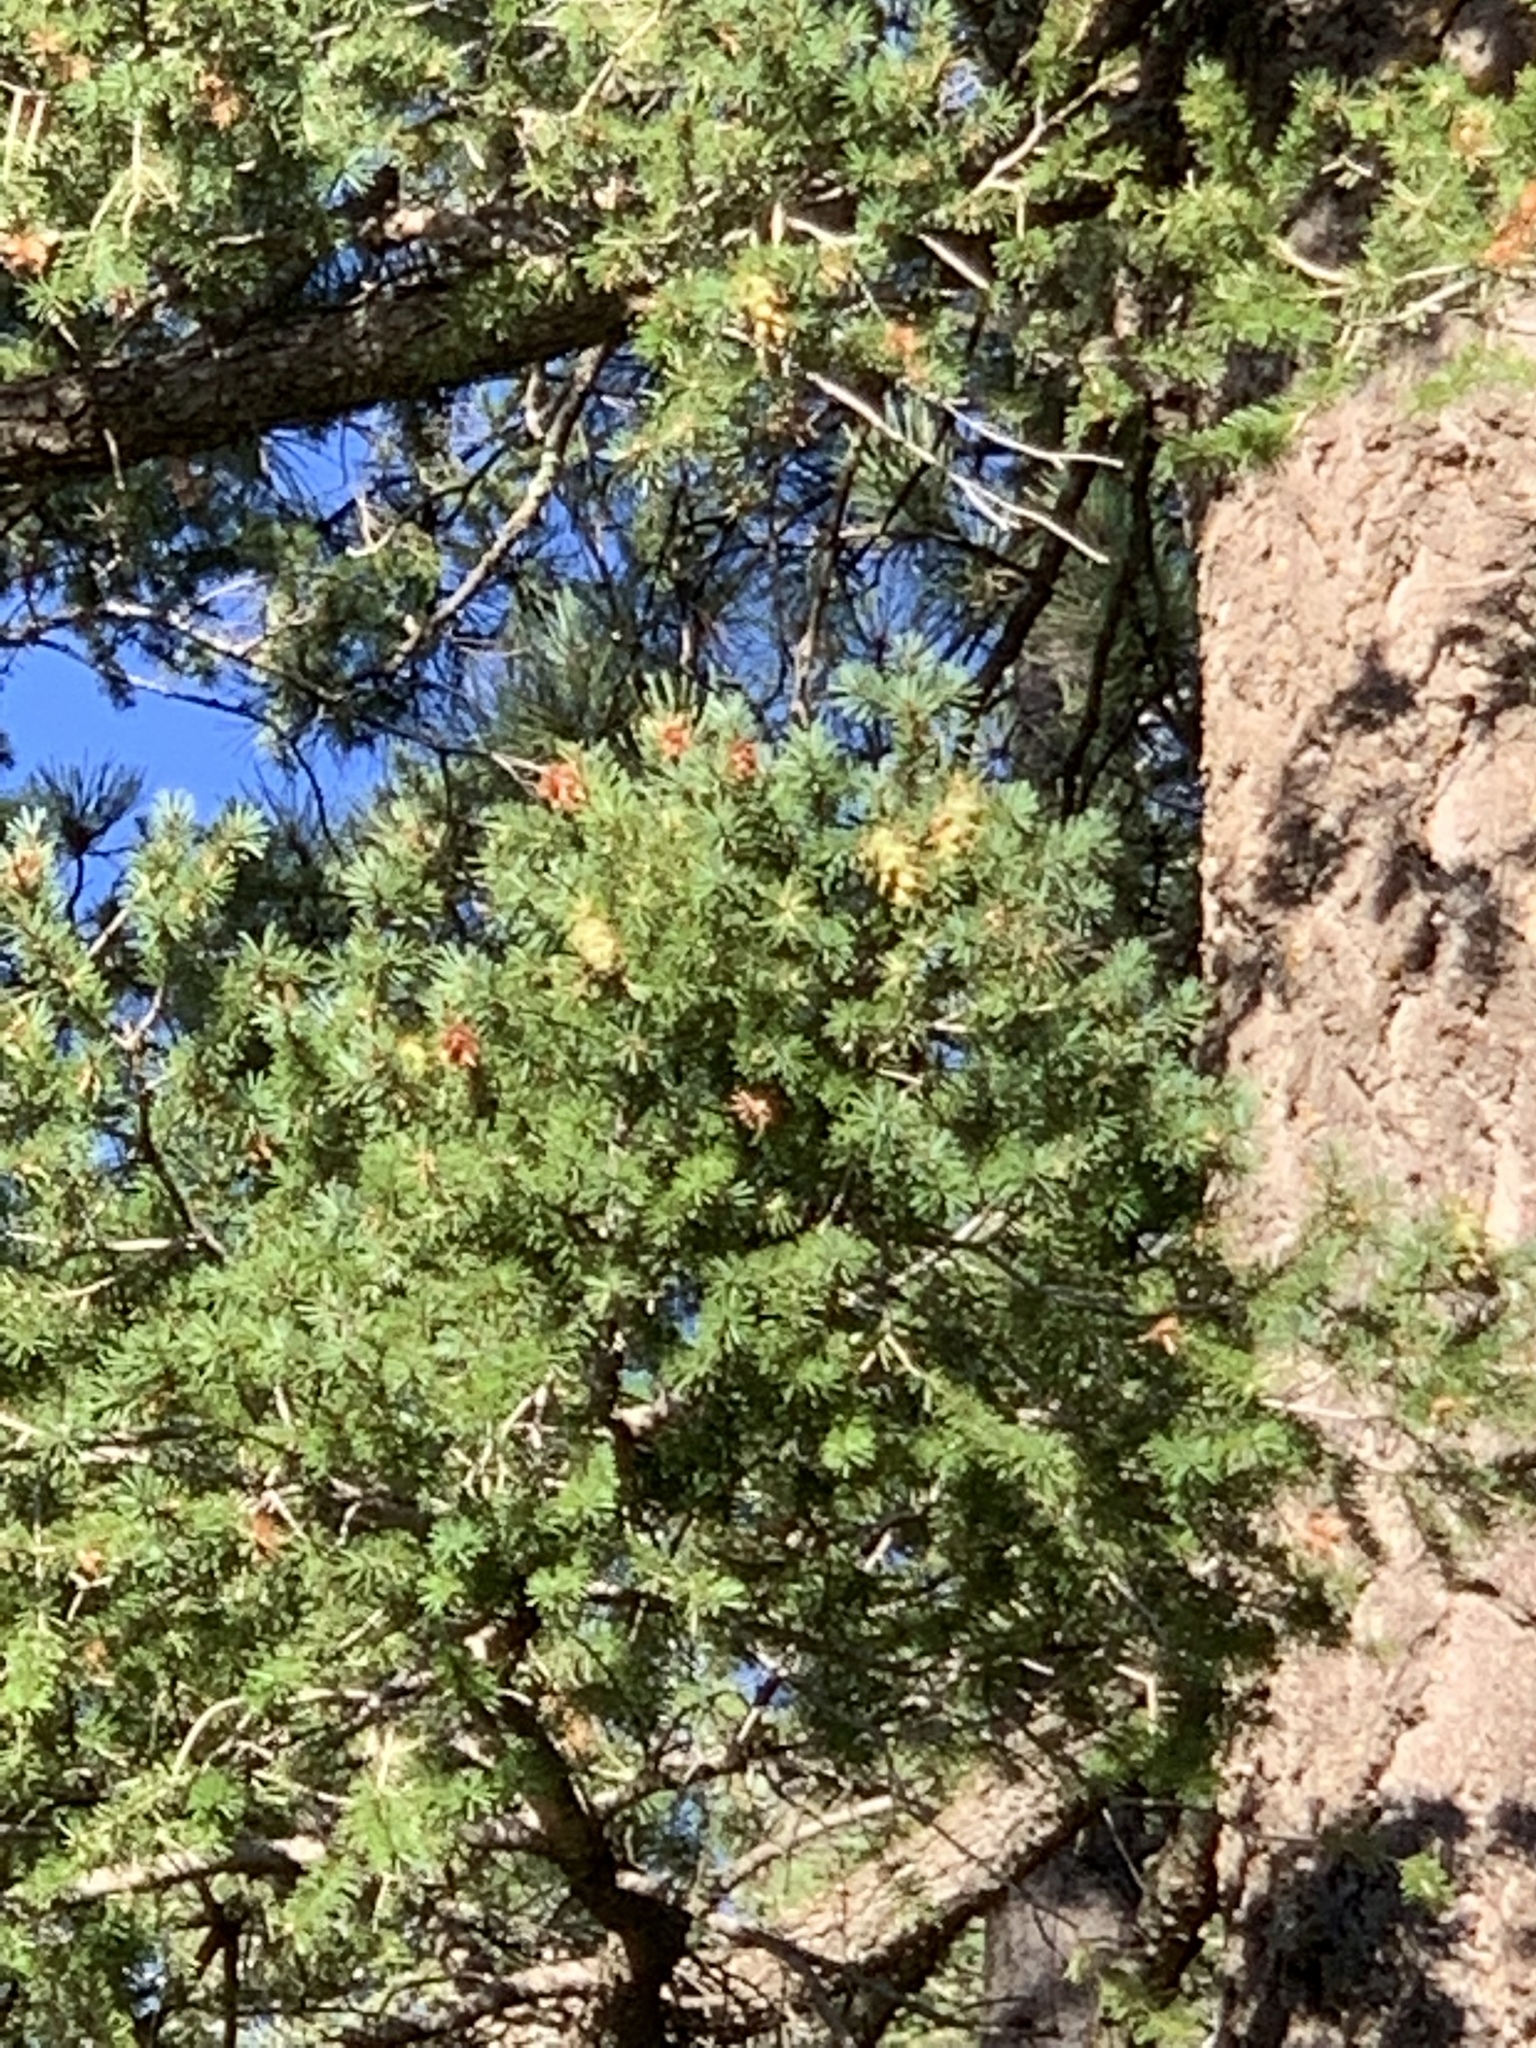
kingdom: Plantae
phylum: Tracheophyta
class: Pinopsida
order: Pinales
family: Pinaceae
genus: Pseudotsuga
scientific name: Pseudotsuga menziesii
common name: Douglas fir
